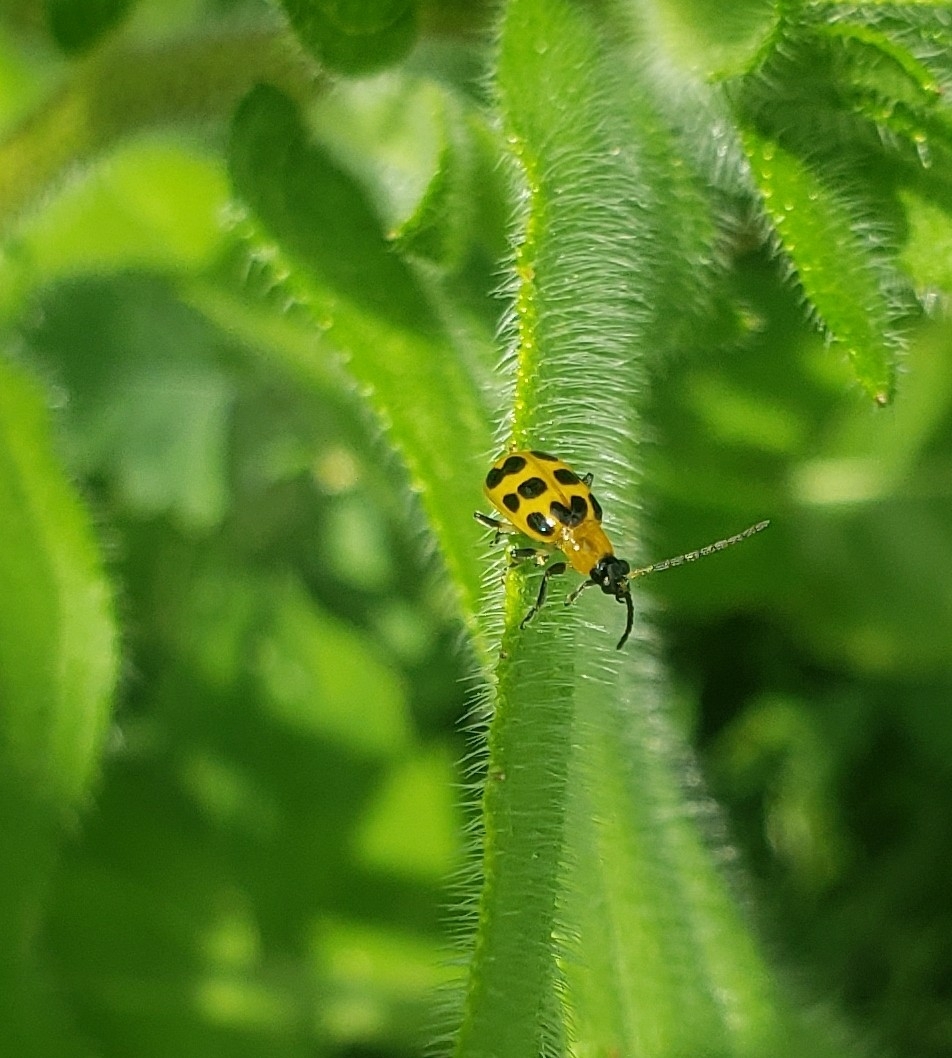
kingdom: Animalia
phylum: Arthropoda
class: Insecta
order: Coleoptera
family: Chrysomelidae
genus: Diabrotica
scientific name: Diabrotica undecimpunctata
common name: Spotted cucumber beetle
